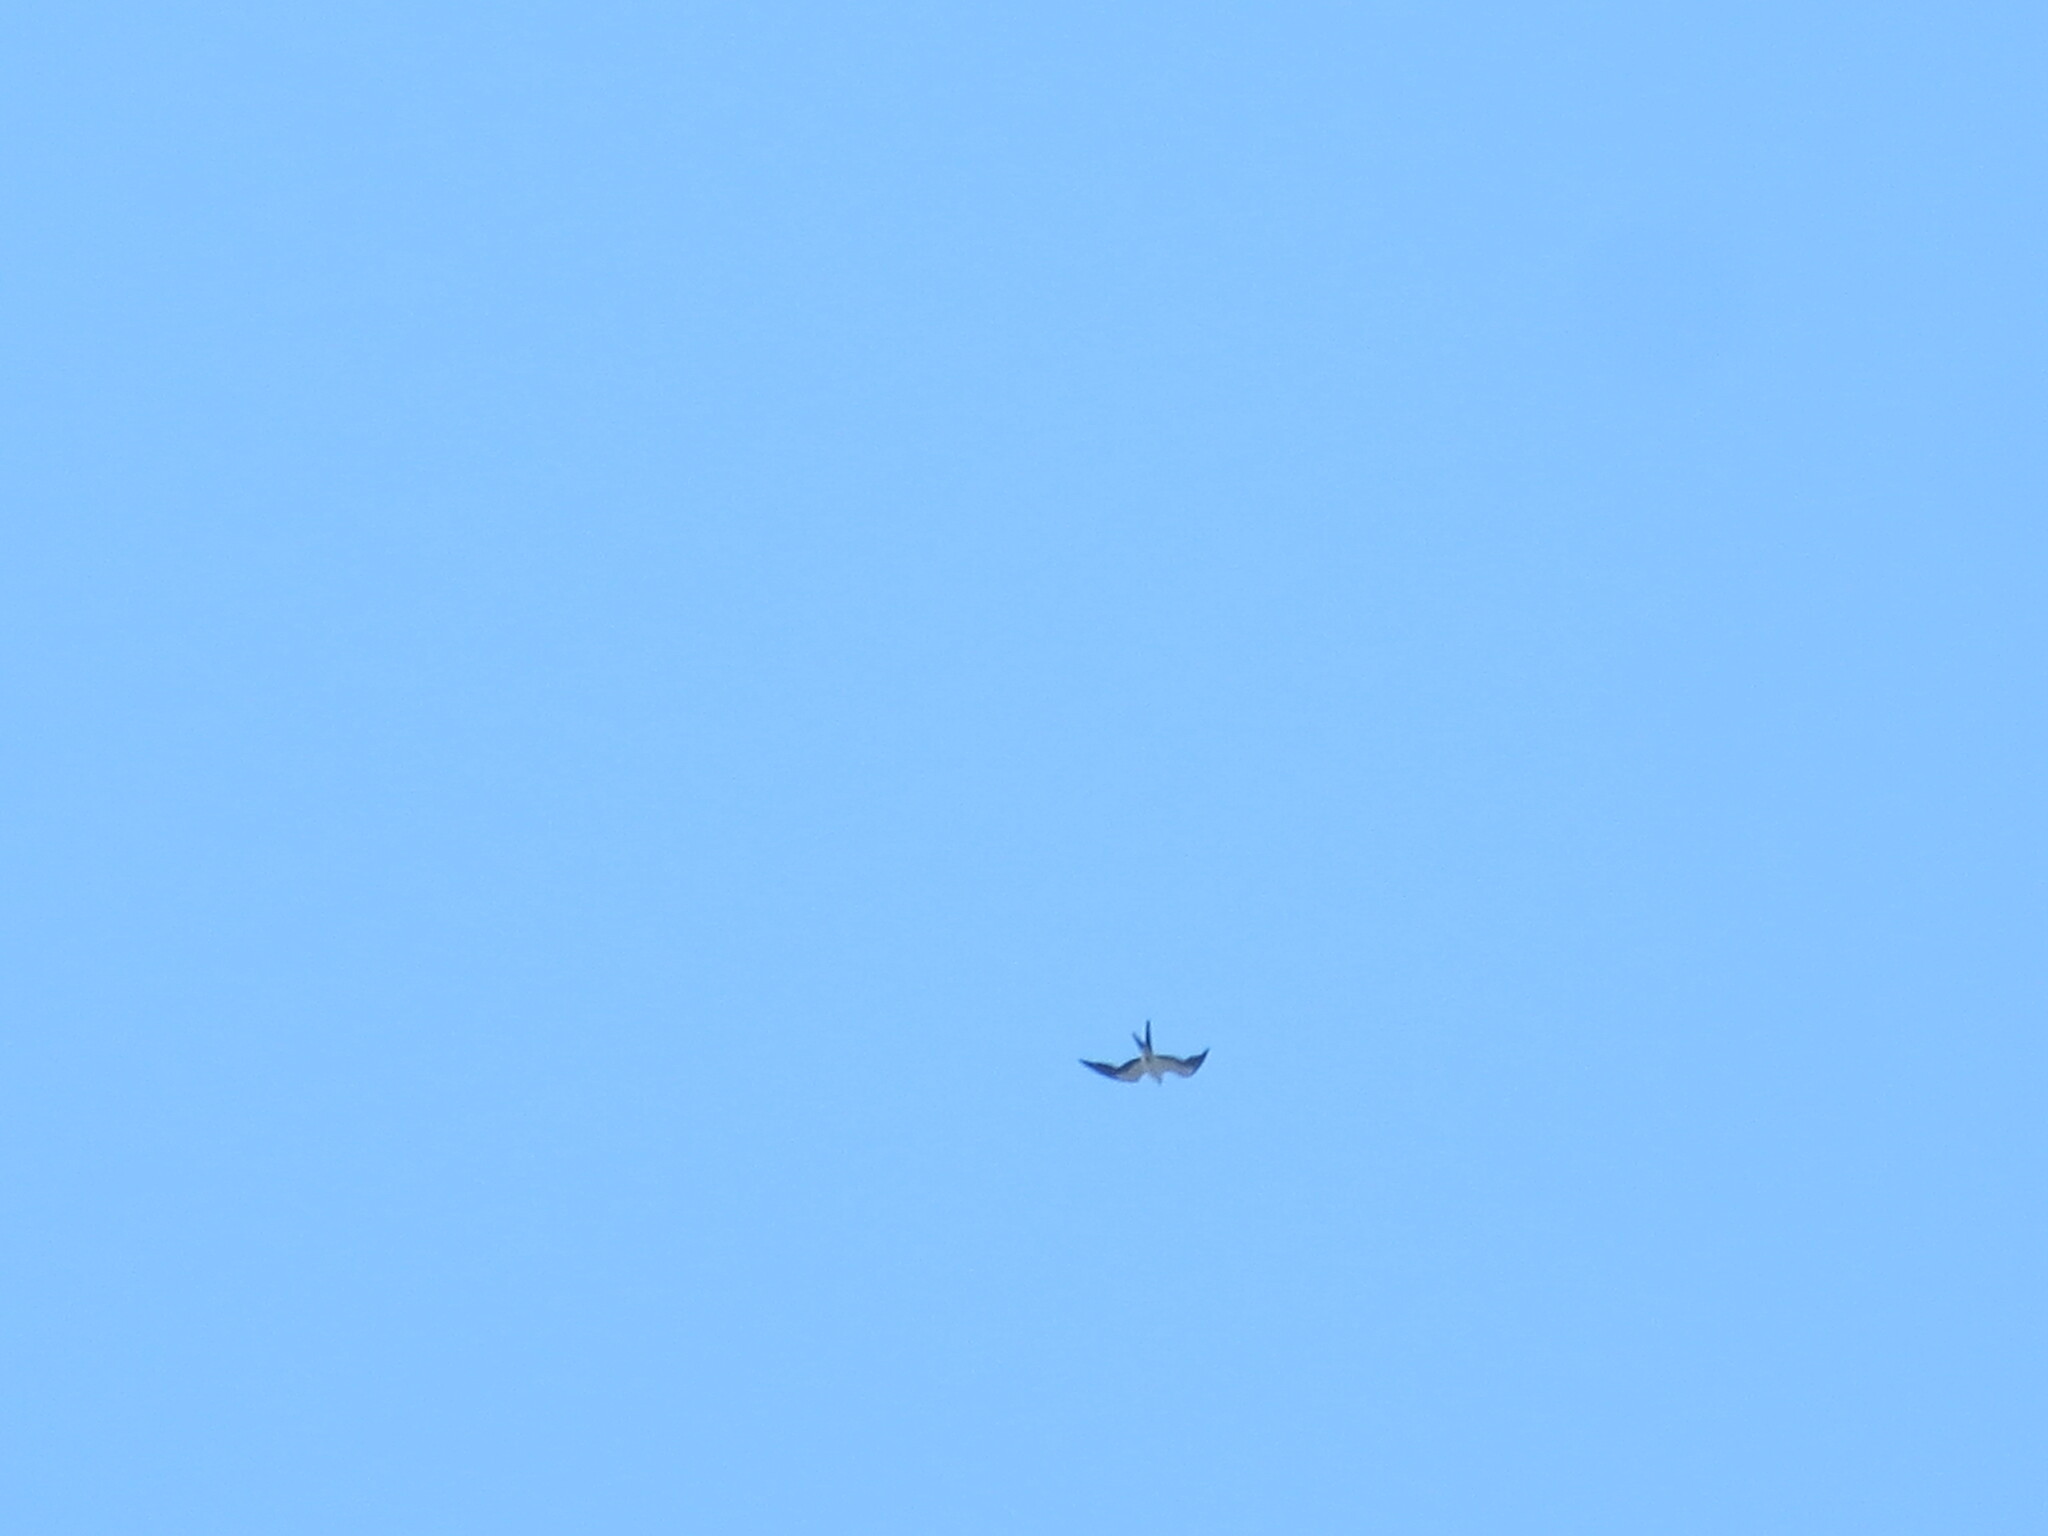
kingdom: Animalia
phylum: Chordata
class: Aves
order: Accipitriformes
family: Accipitridae
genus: Elanoides
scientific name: Elanoides forficatus
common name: Swallow-tailed kite
